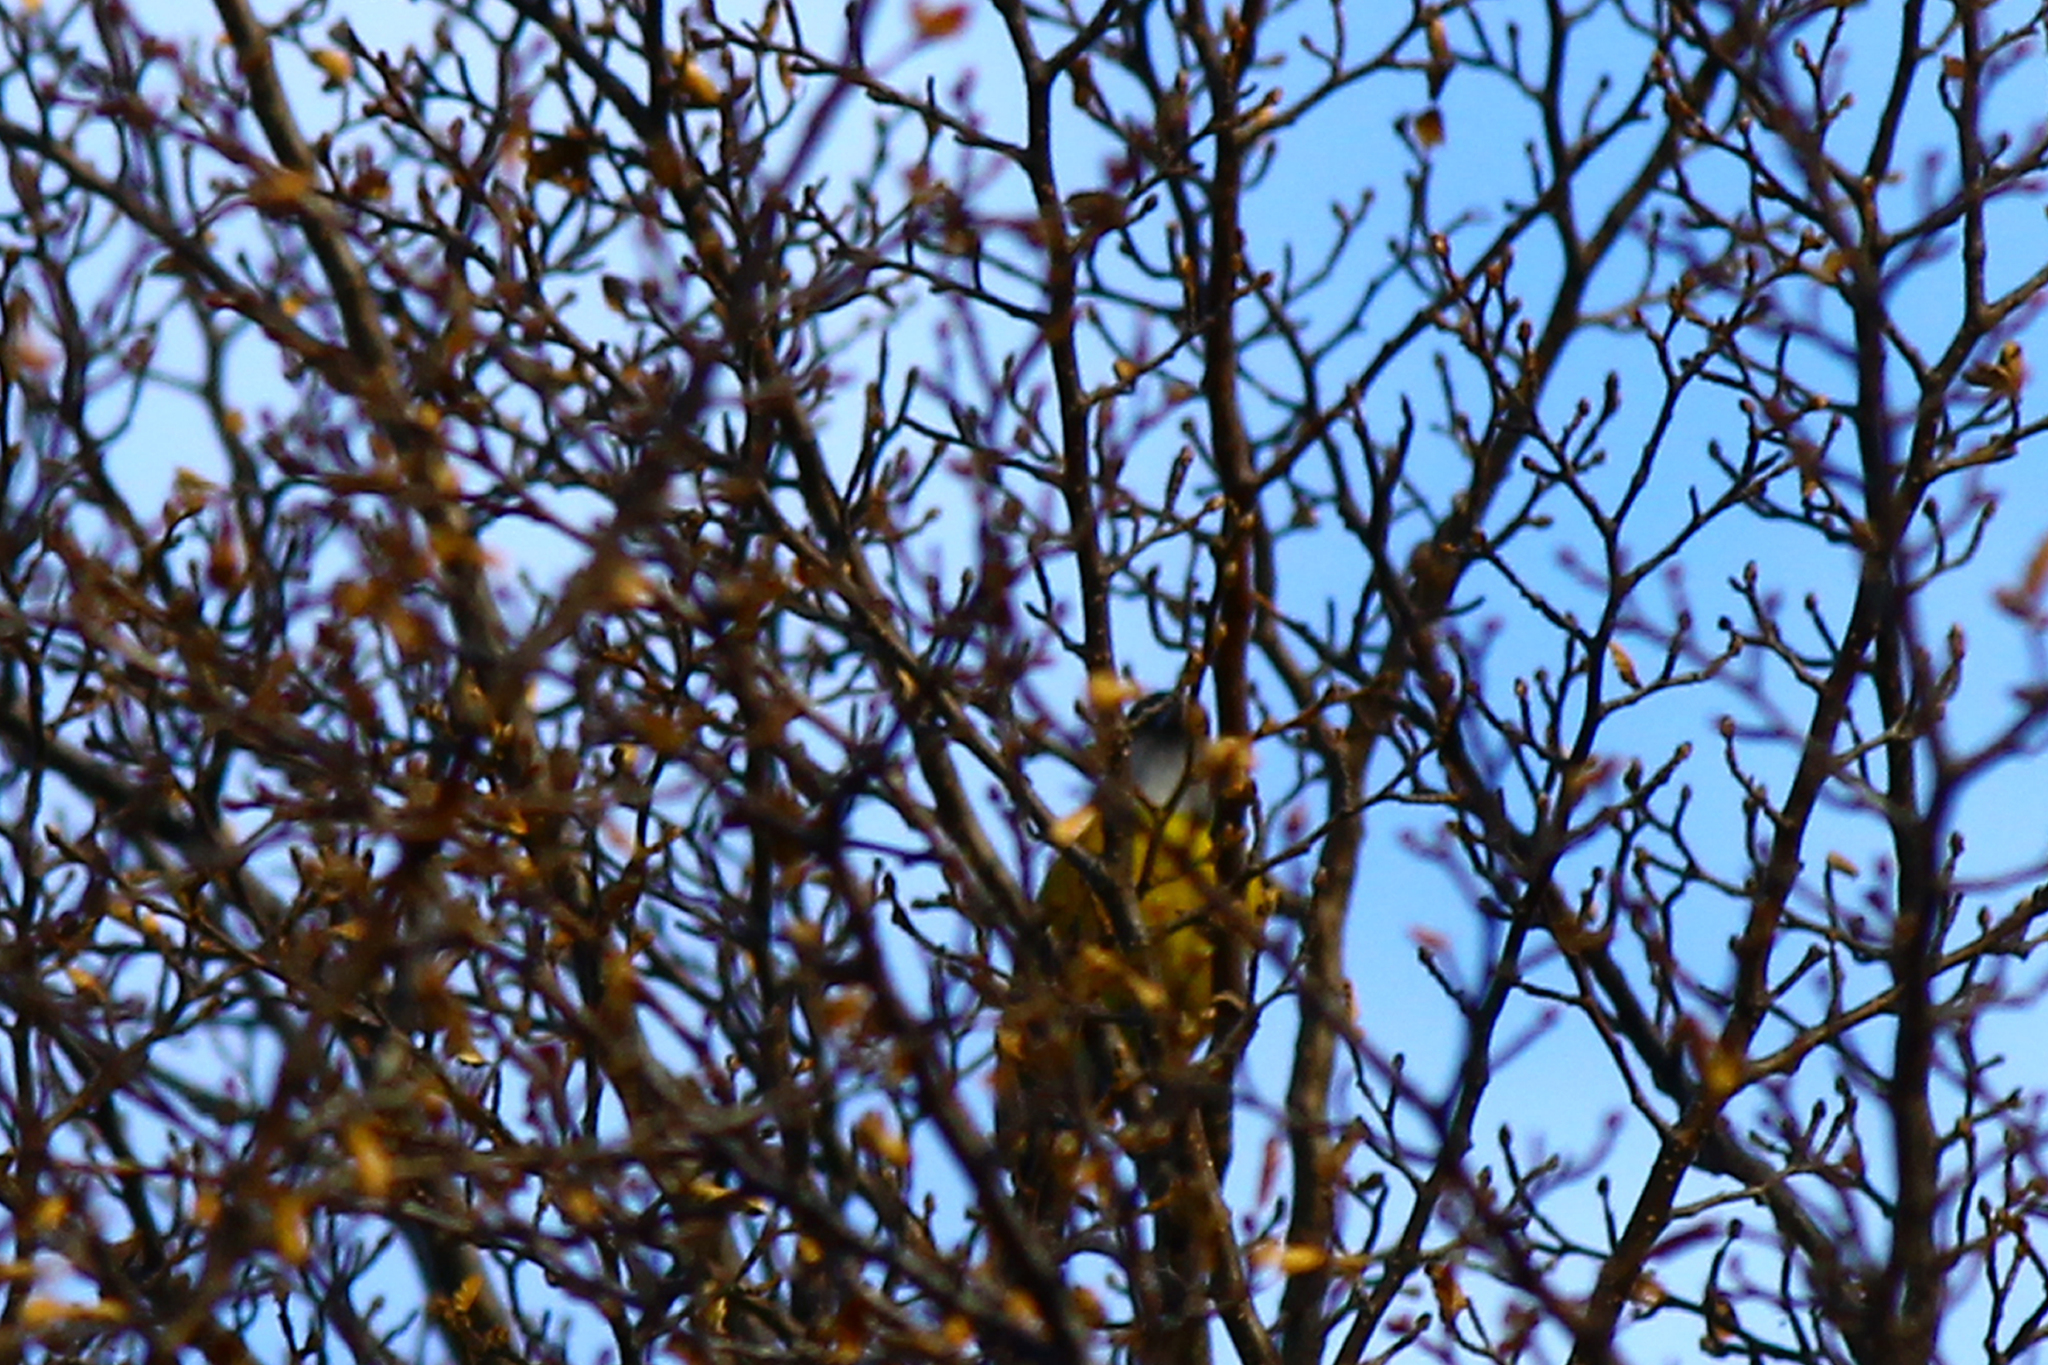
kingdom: Animalia
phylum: Chordata
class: Aves
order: Passeriformes
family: Thraupidae
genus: Phrygilus
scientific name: Phrygilus patagonicus
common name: Patagonian sierra finch
